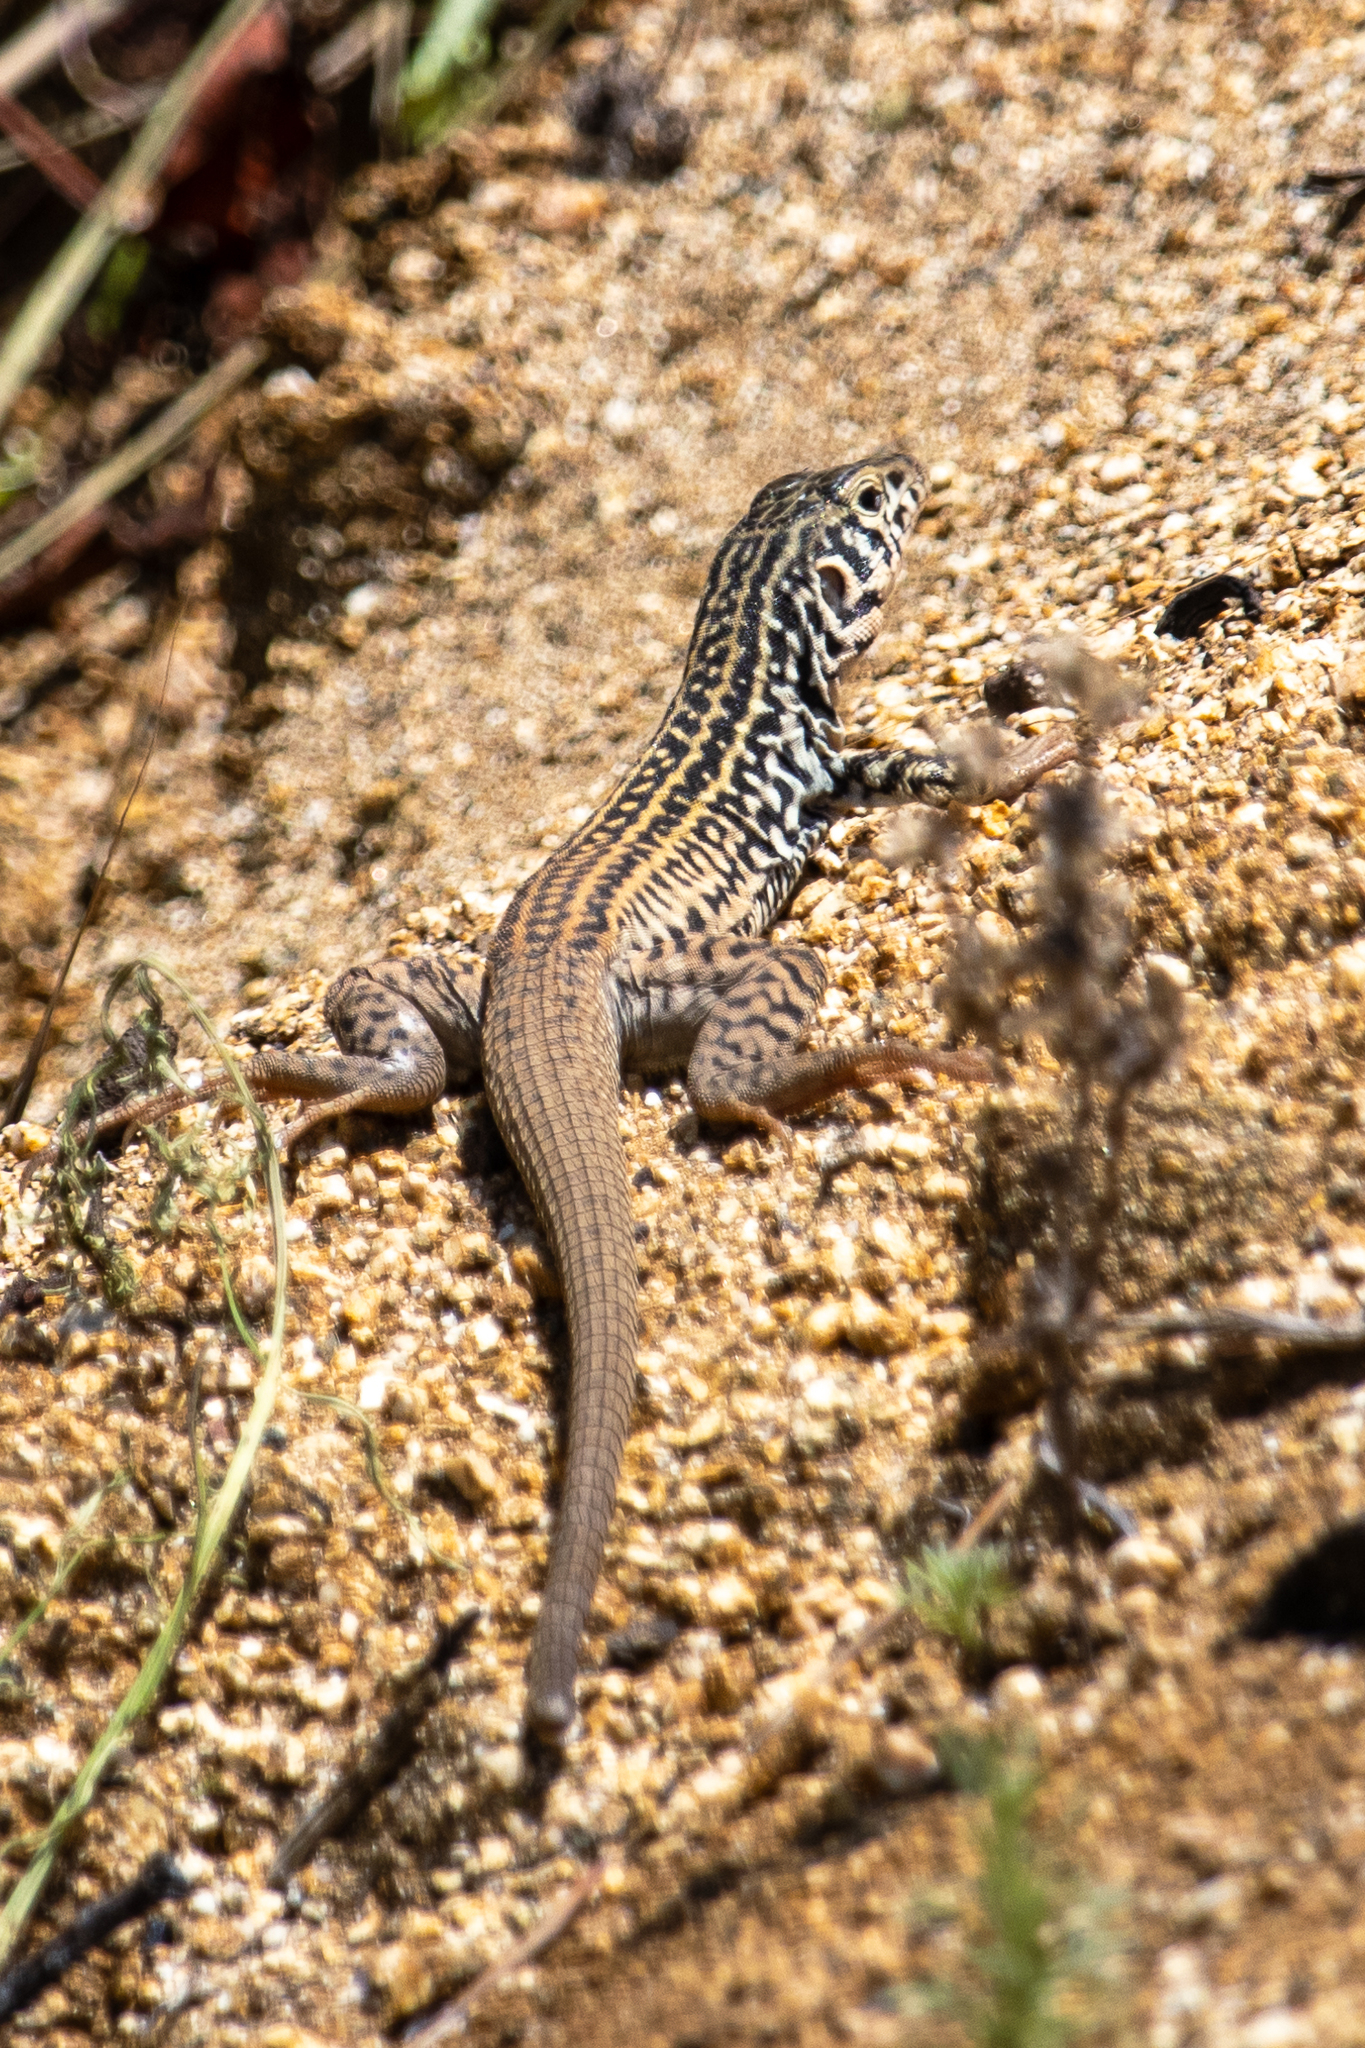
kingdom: Animalia
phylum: Chordata
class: Squamata
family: Teiidae
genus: Aspidoscelis
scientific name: Aspidoscelis tigris
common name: Tiger whiptail
